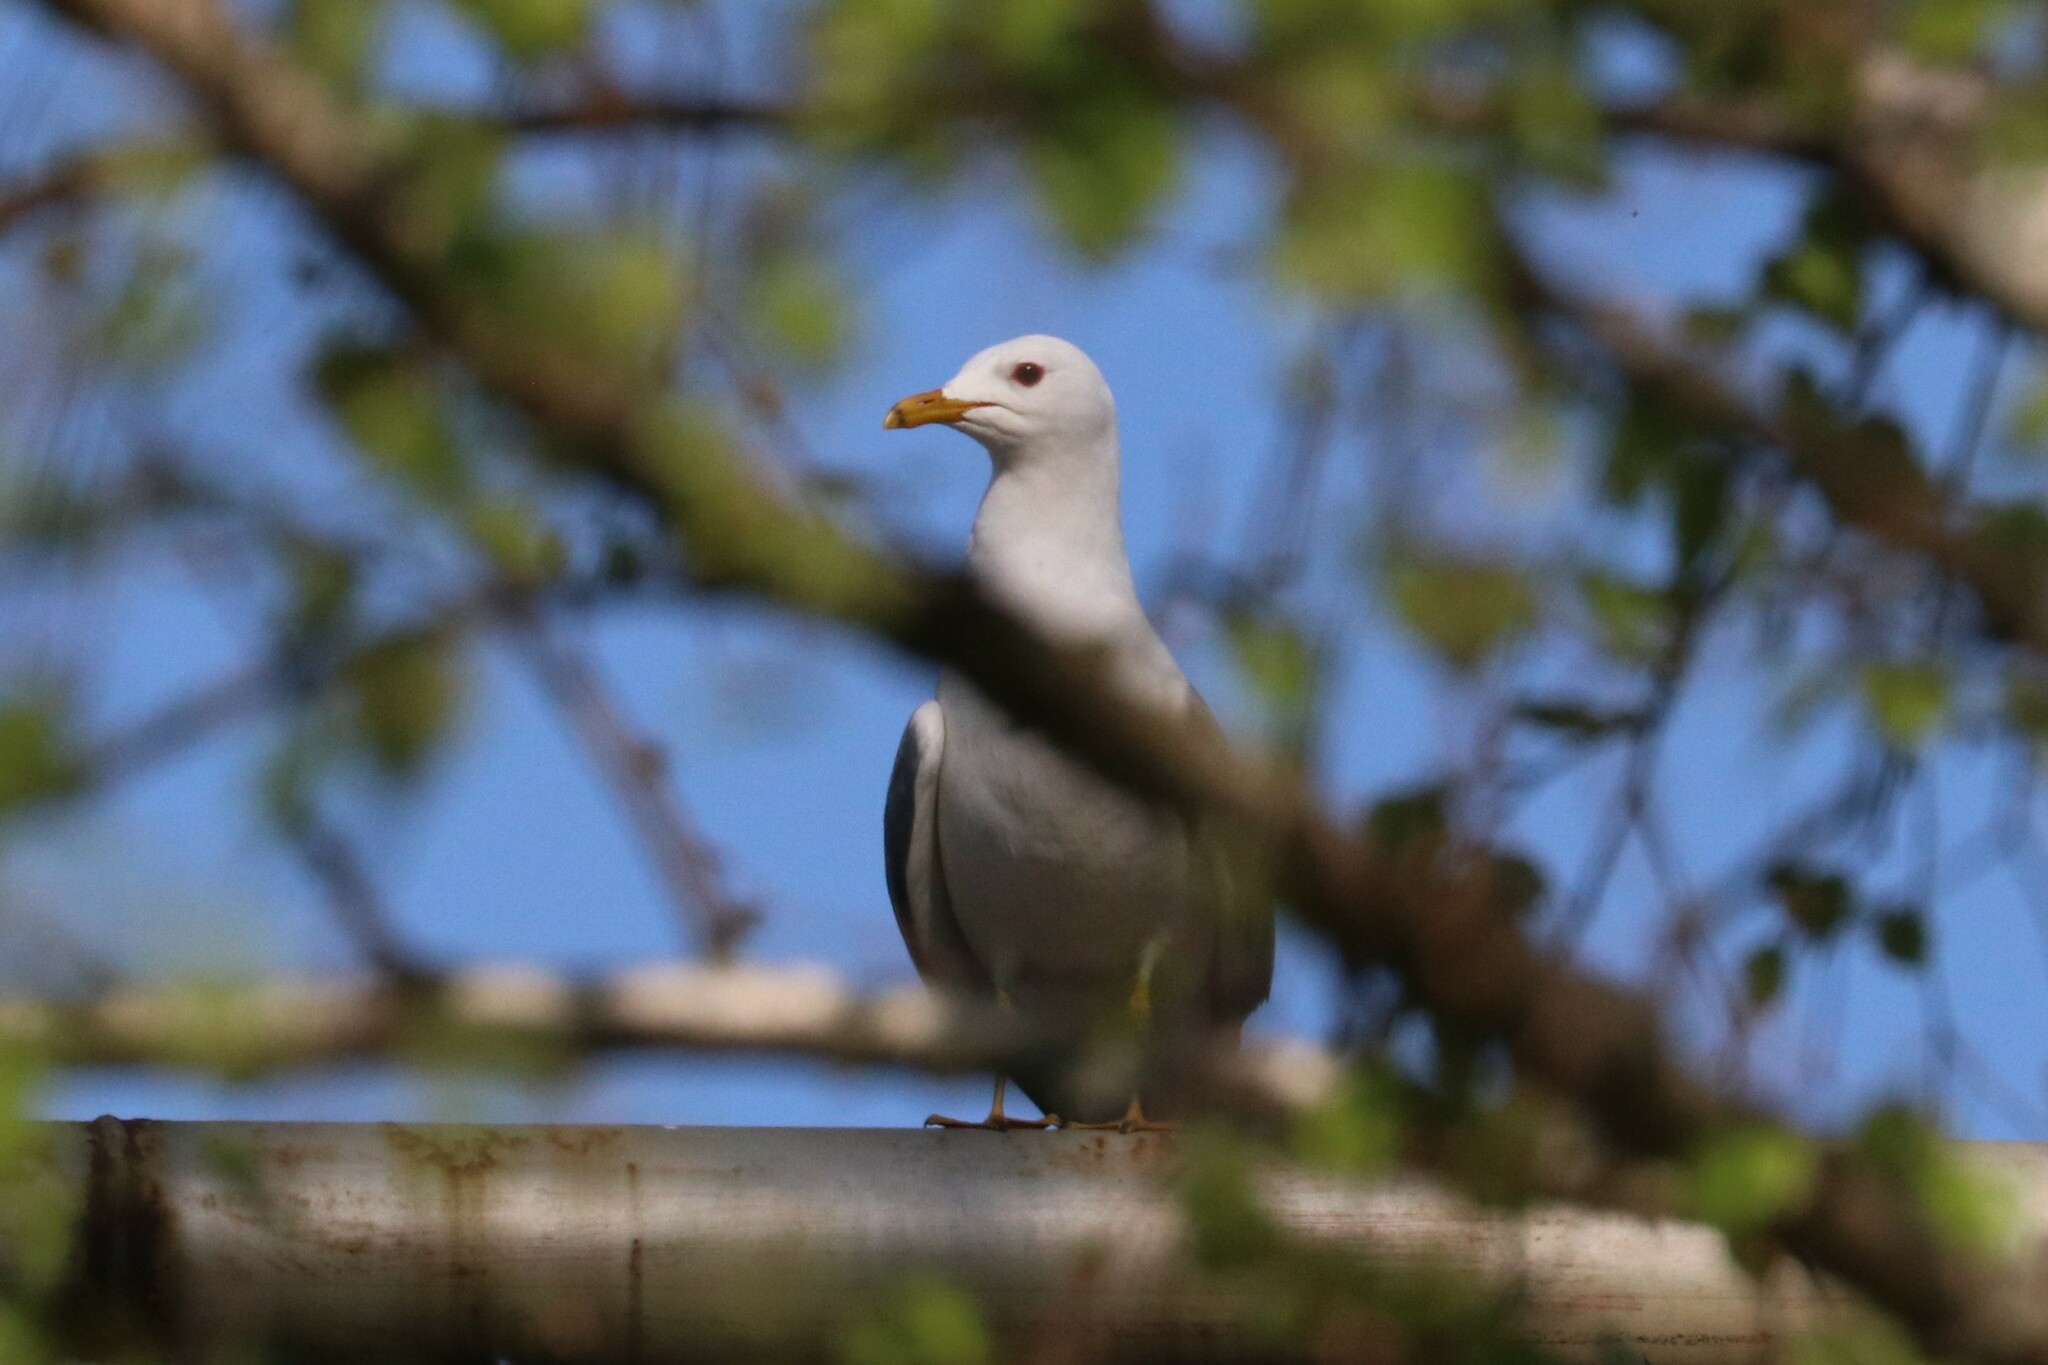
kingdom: Animalia
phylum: Chordata
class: Aves
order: Charadriiformes
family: Laridae
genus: Larus
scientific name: Larus canus
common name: Mew gull
